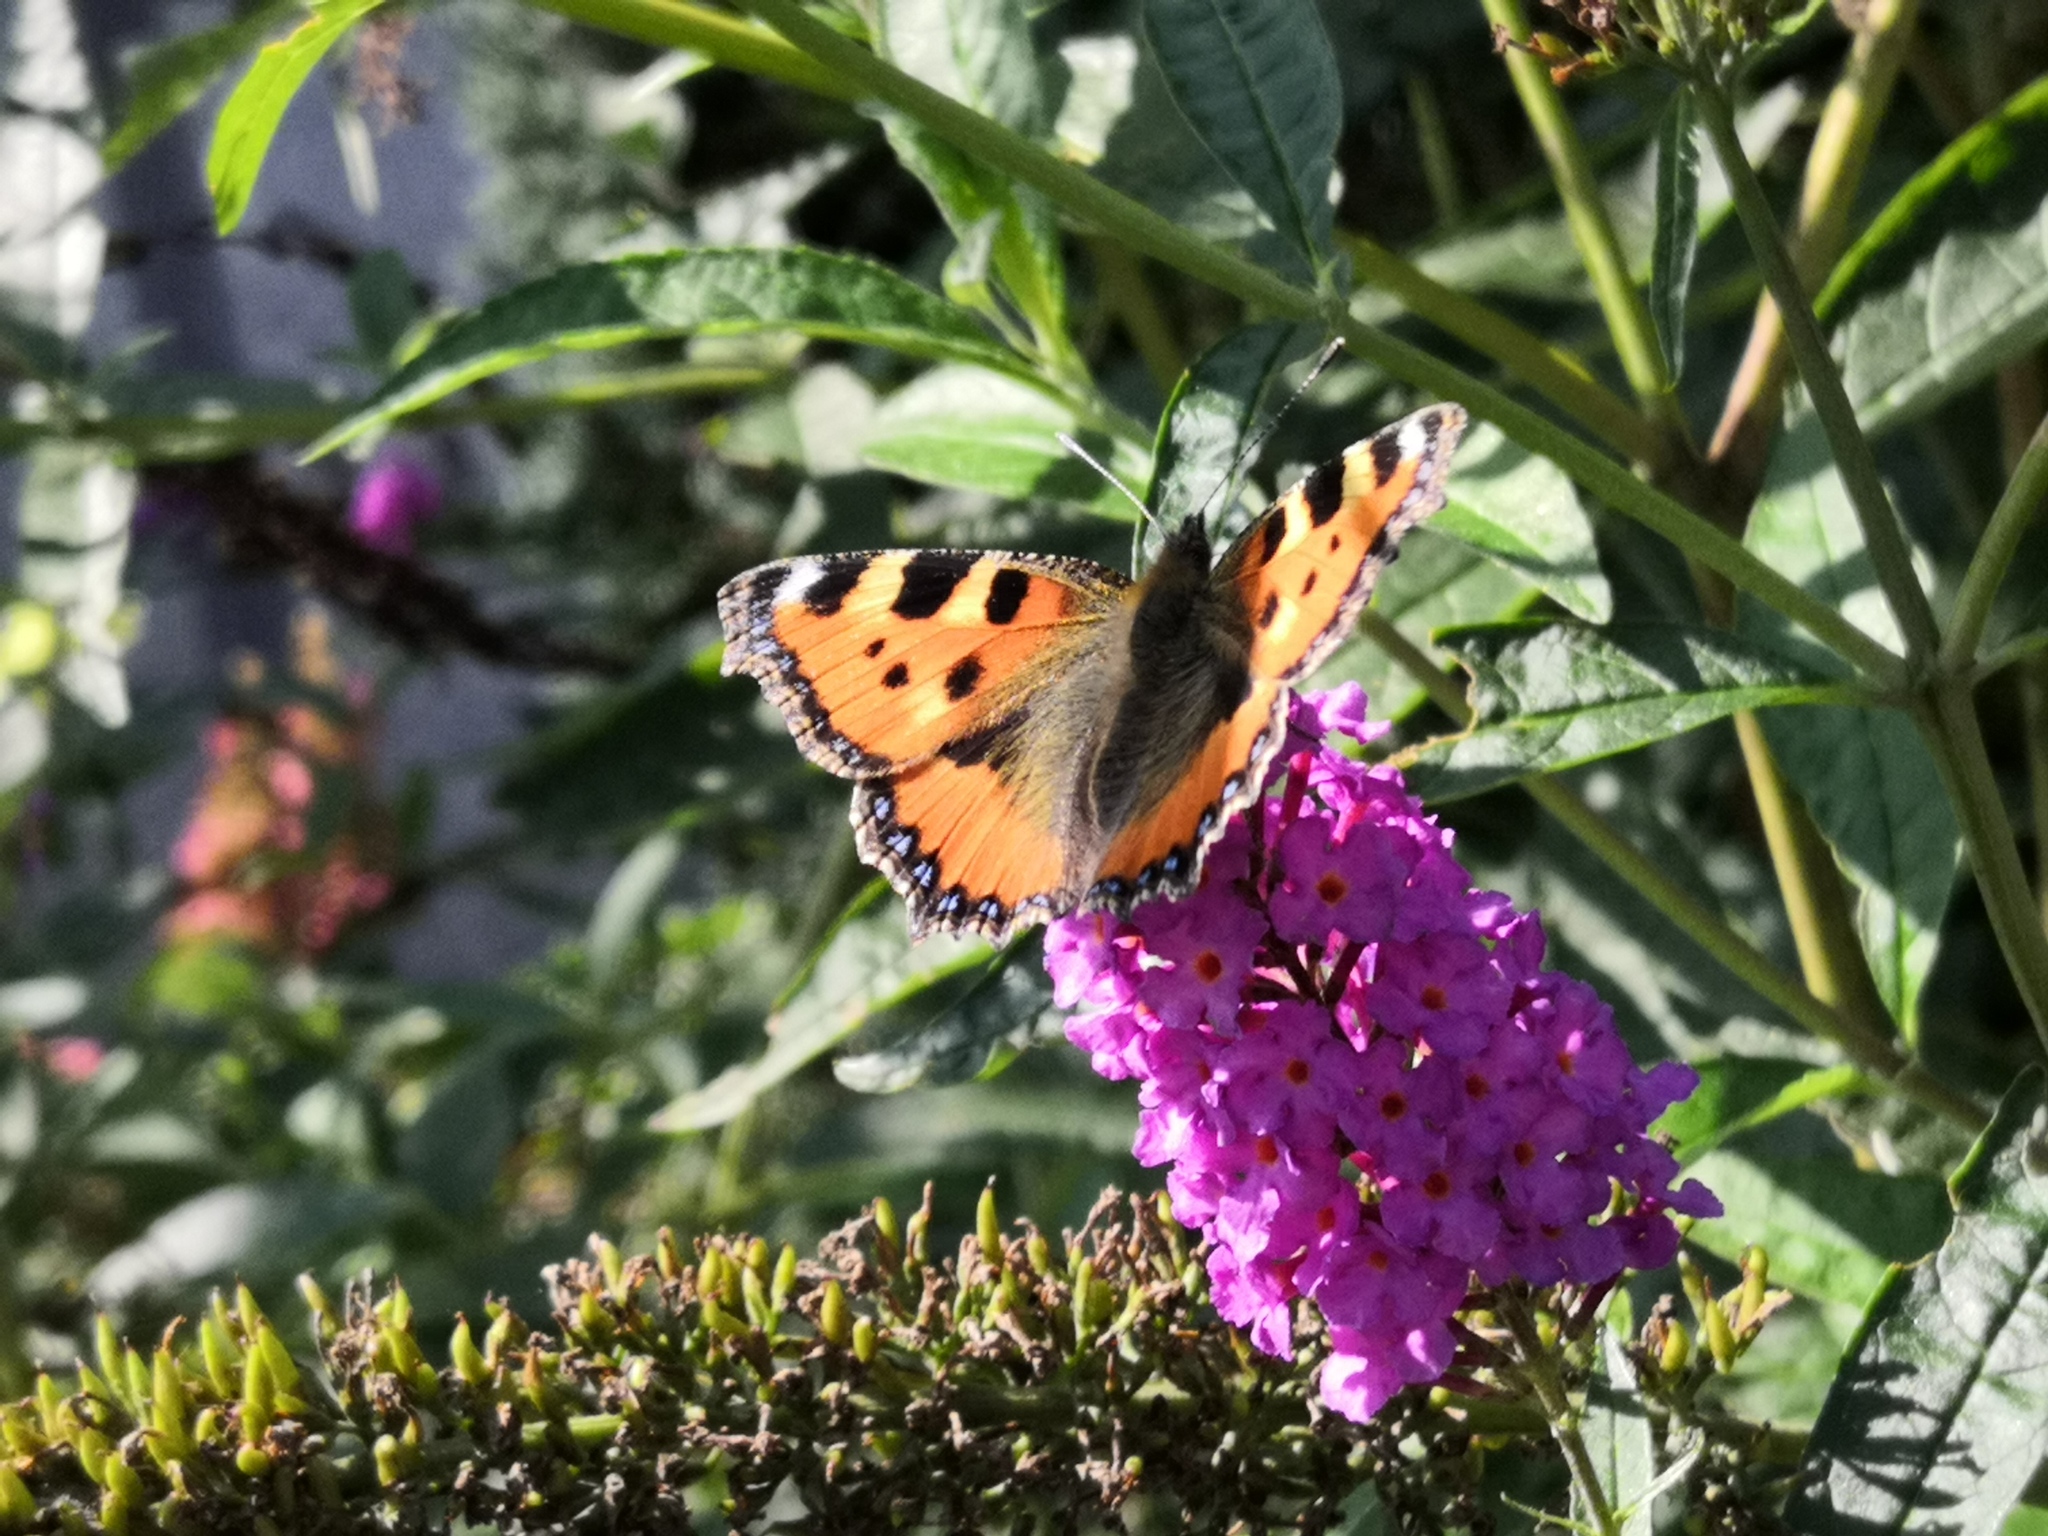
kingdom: Animalia
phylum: Arthropoda
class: Insecta
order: Lepidoptera
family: Nymphalidae
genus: Aglais
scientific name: Aglais urticae
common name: Small tortoiseshell
